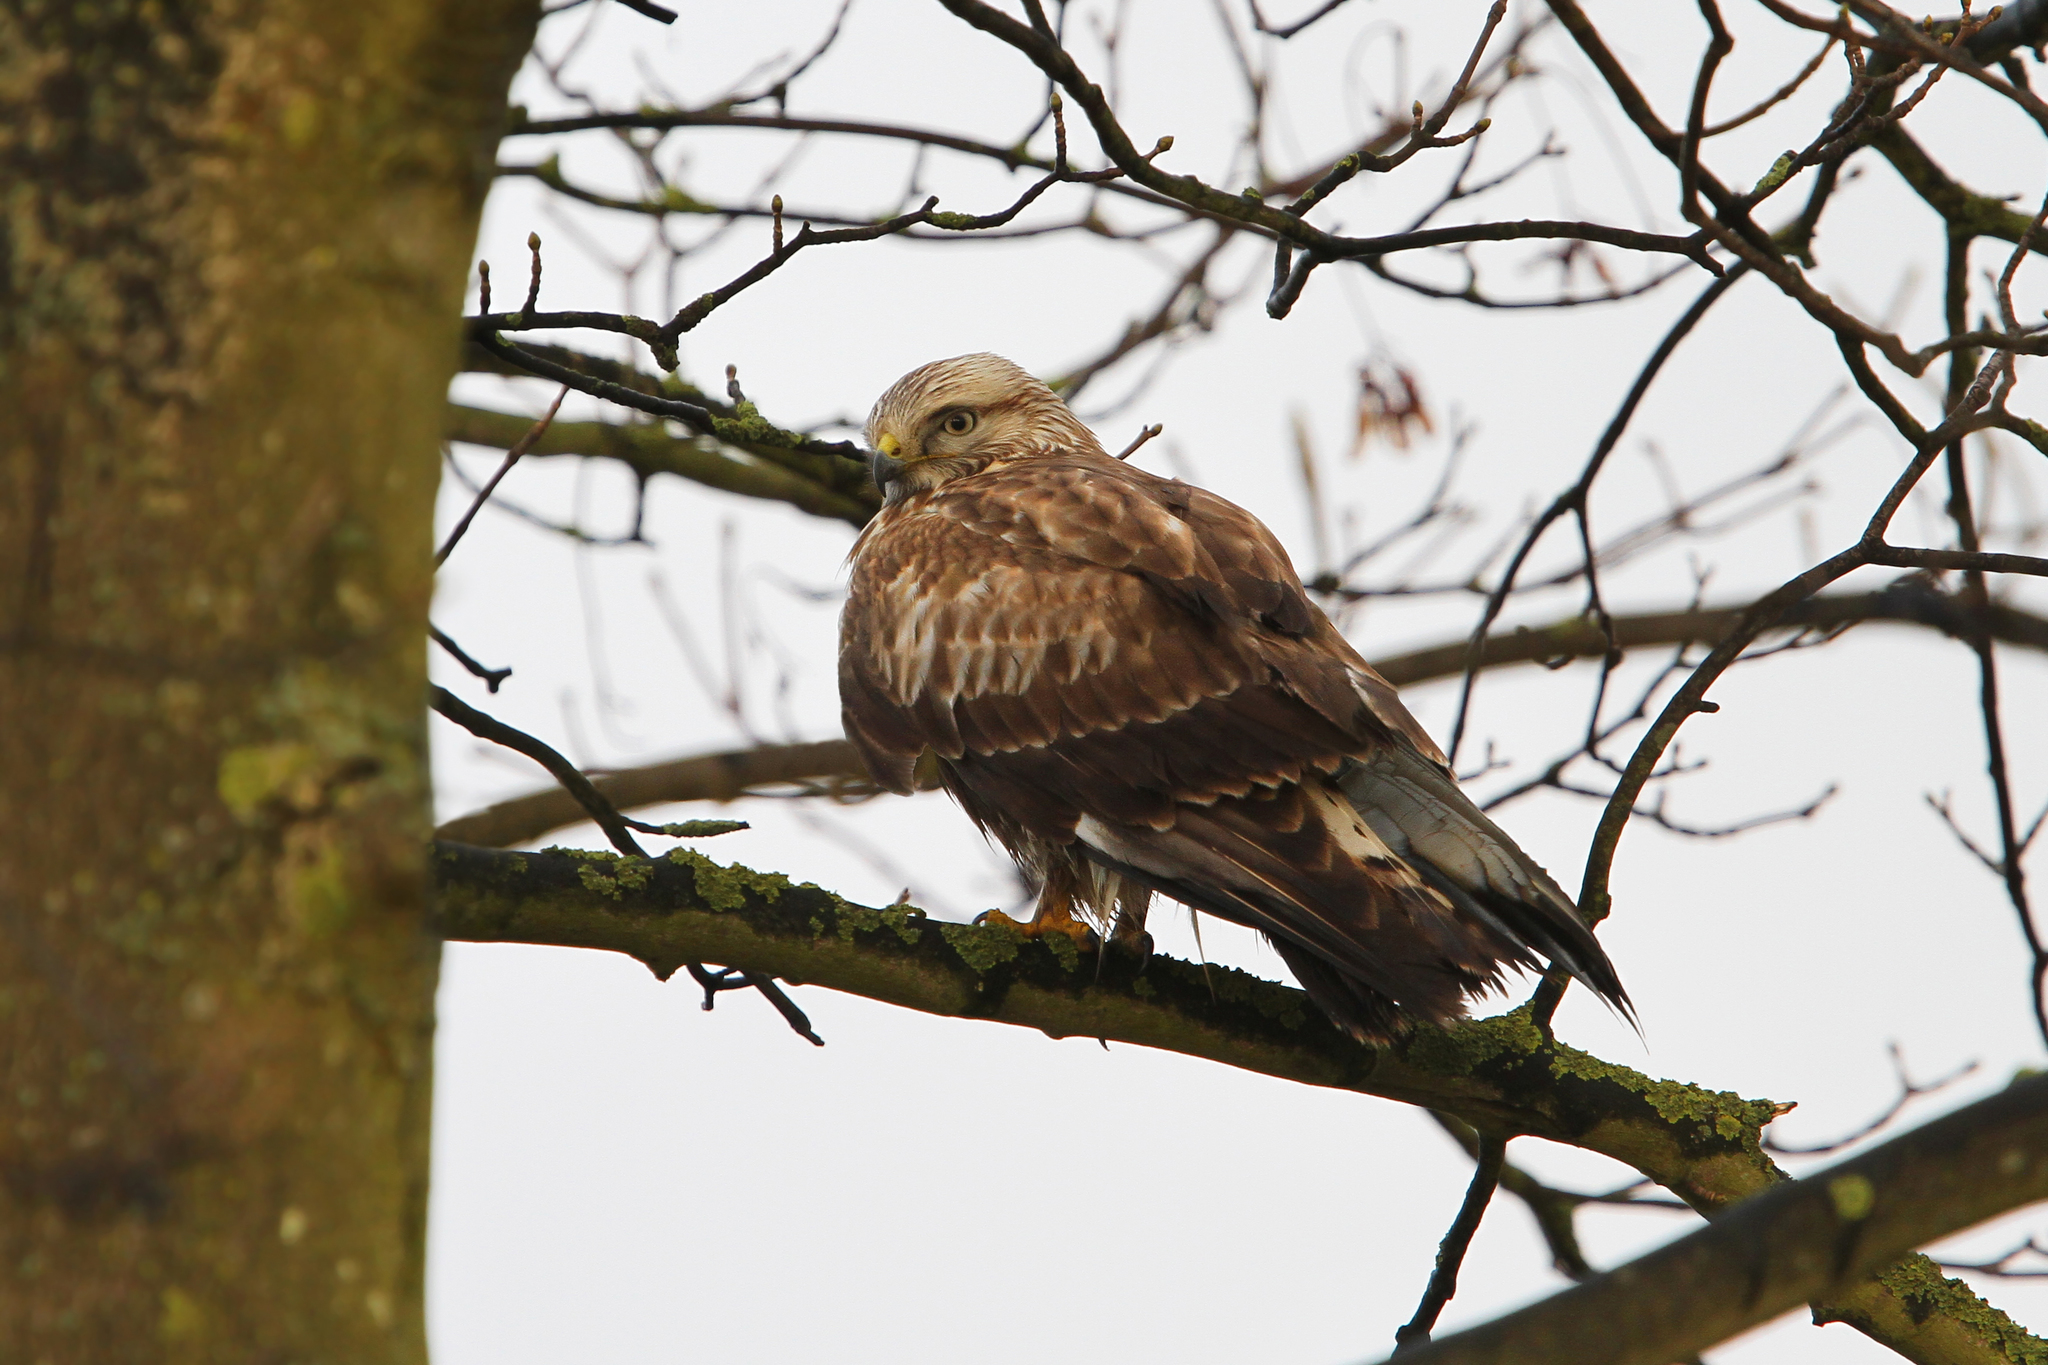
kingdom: Animalia
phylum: Chordata
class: Aves
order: Accipitriformes
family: Accipitridae
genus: Buteo
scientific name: Buteo lagopus
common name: Rough-legged buzzard
